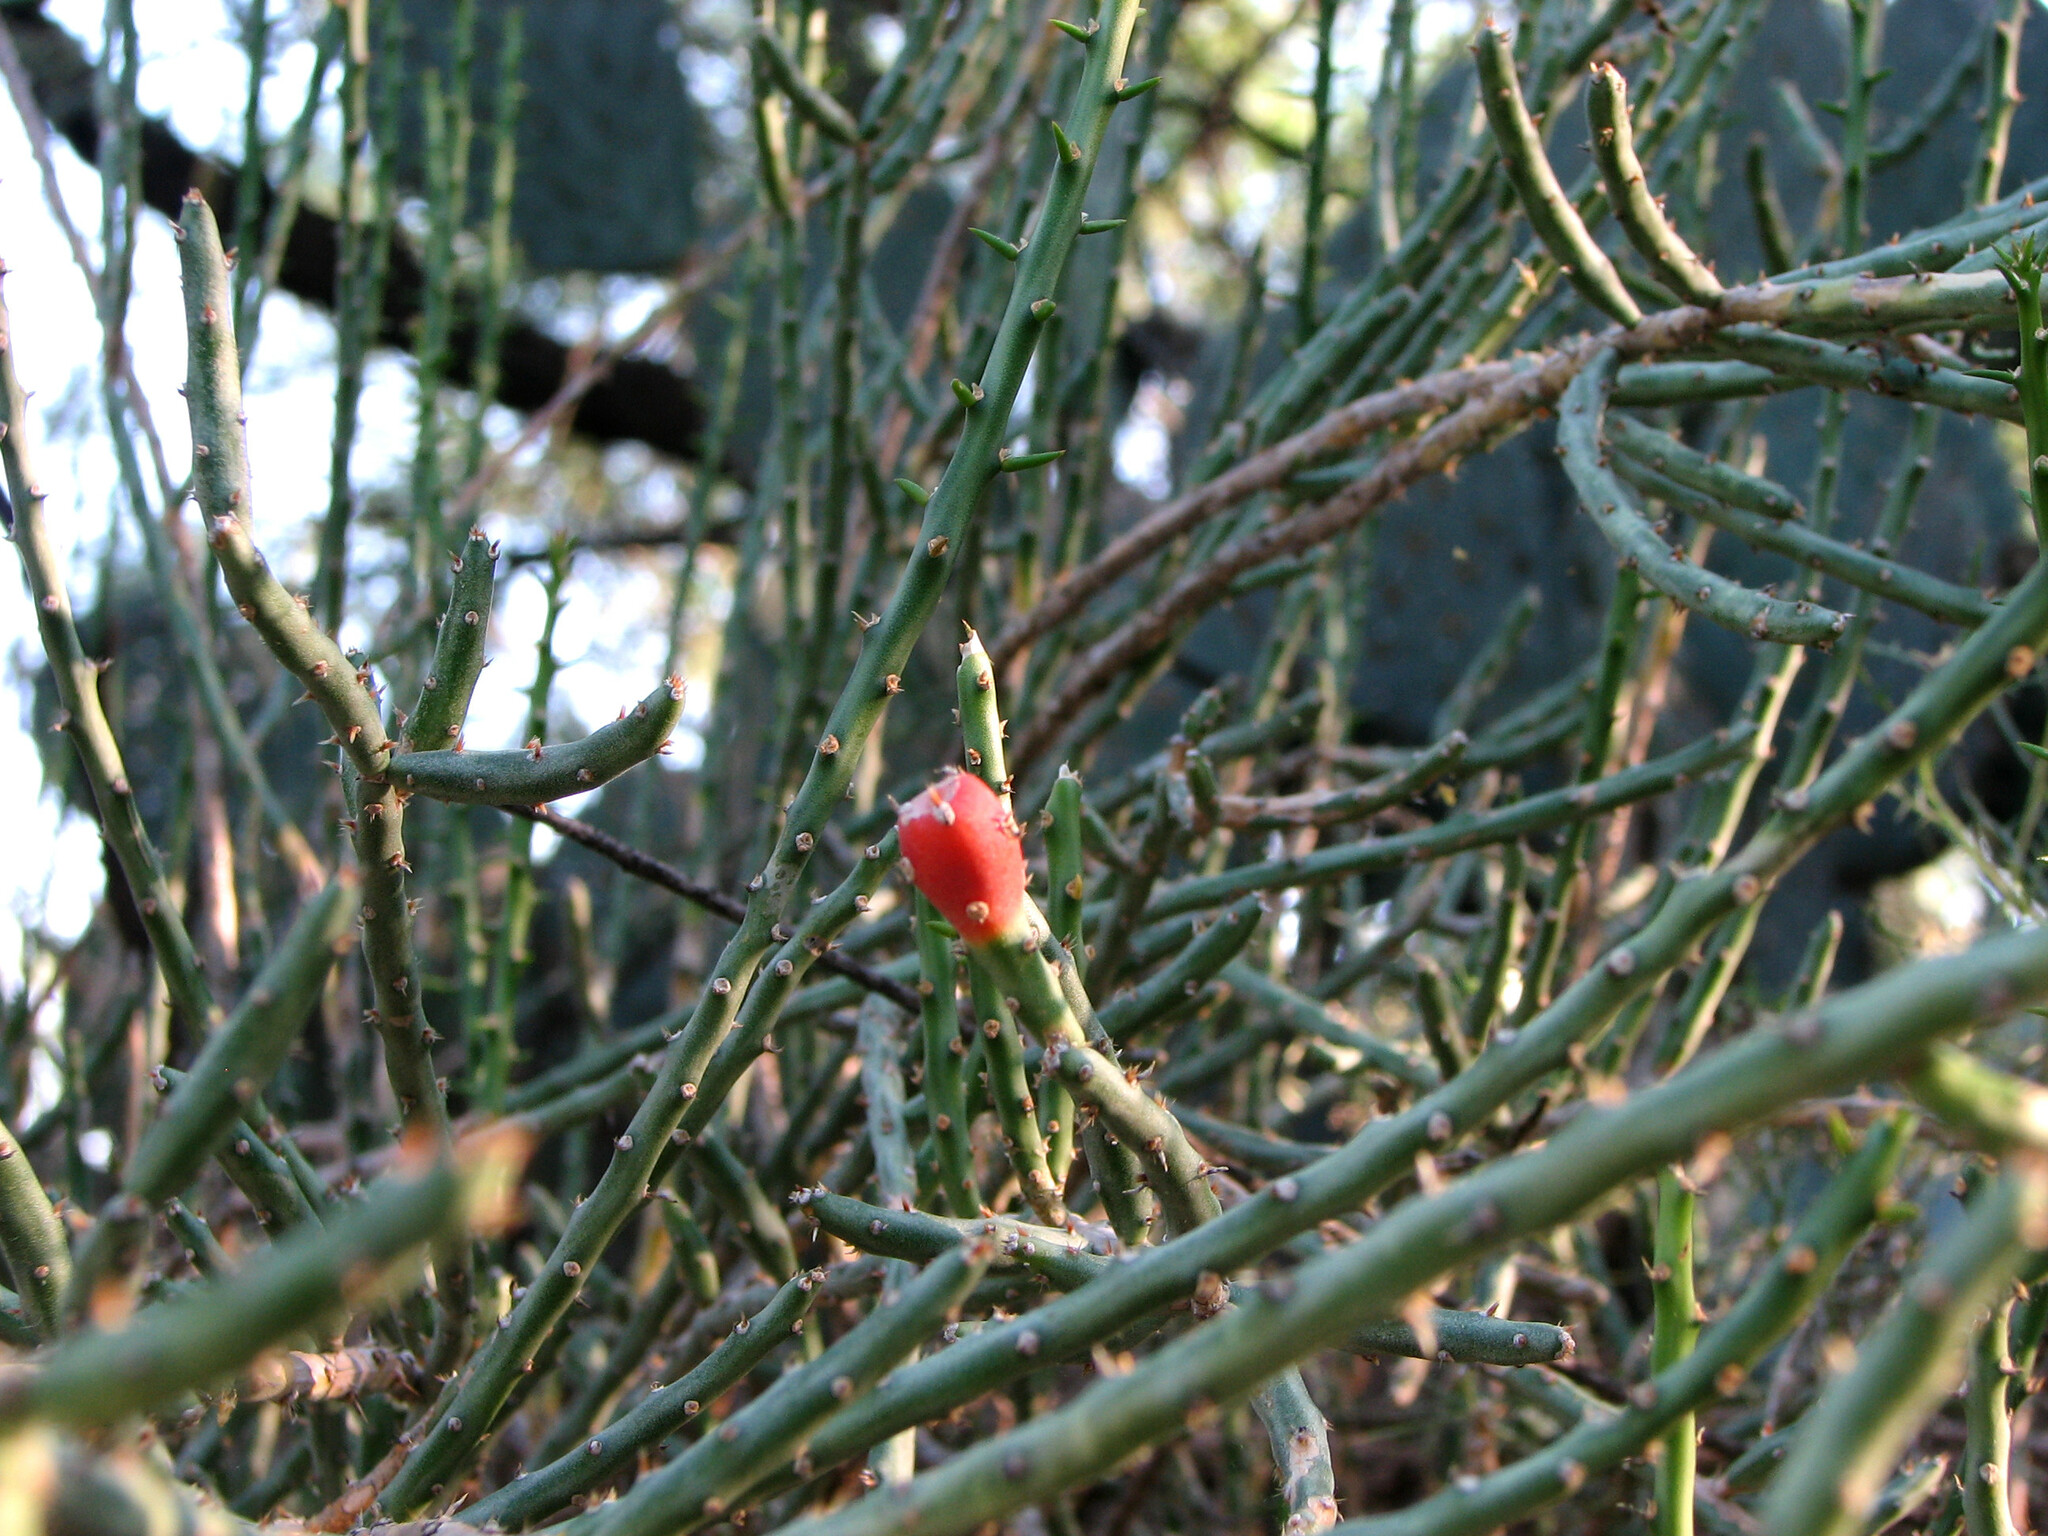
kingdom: Plantae
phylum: Tracheophyta
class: Magnoliopsida
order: Caryophyllales
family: Cactaceae
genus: Cylindropuntia
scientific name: Cylindropuntia leptocaulis
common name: Christmas cactus
